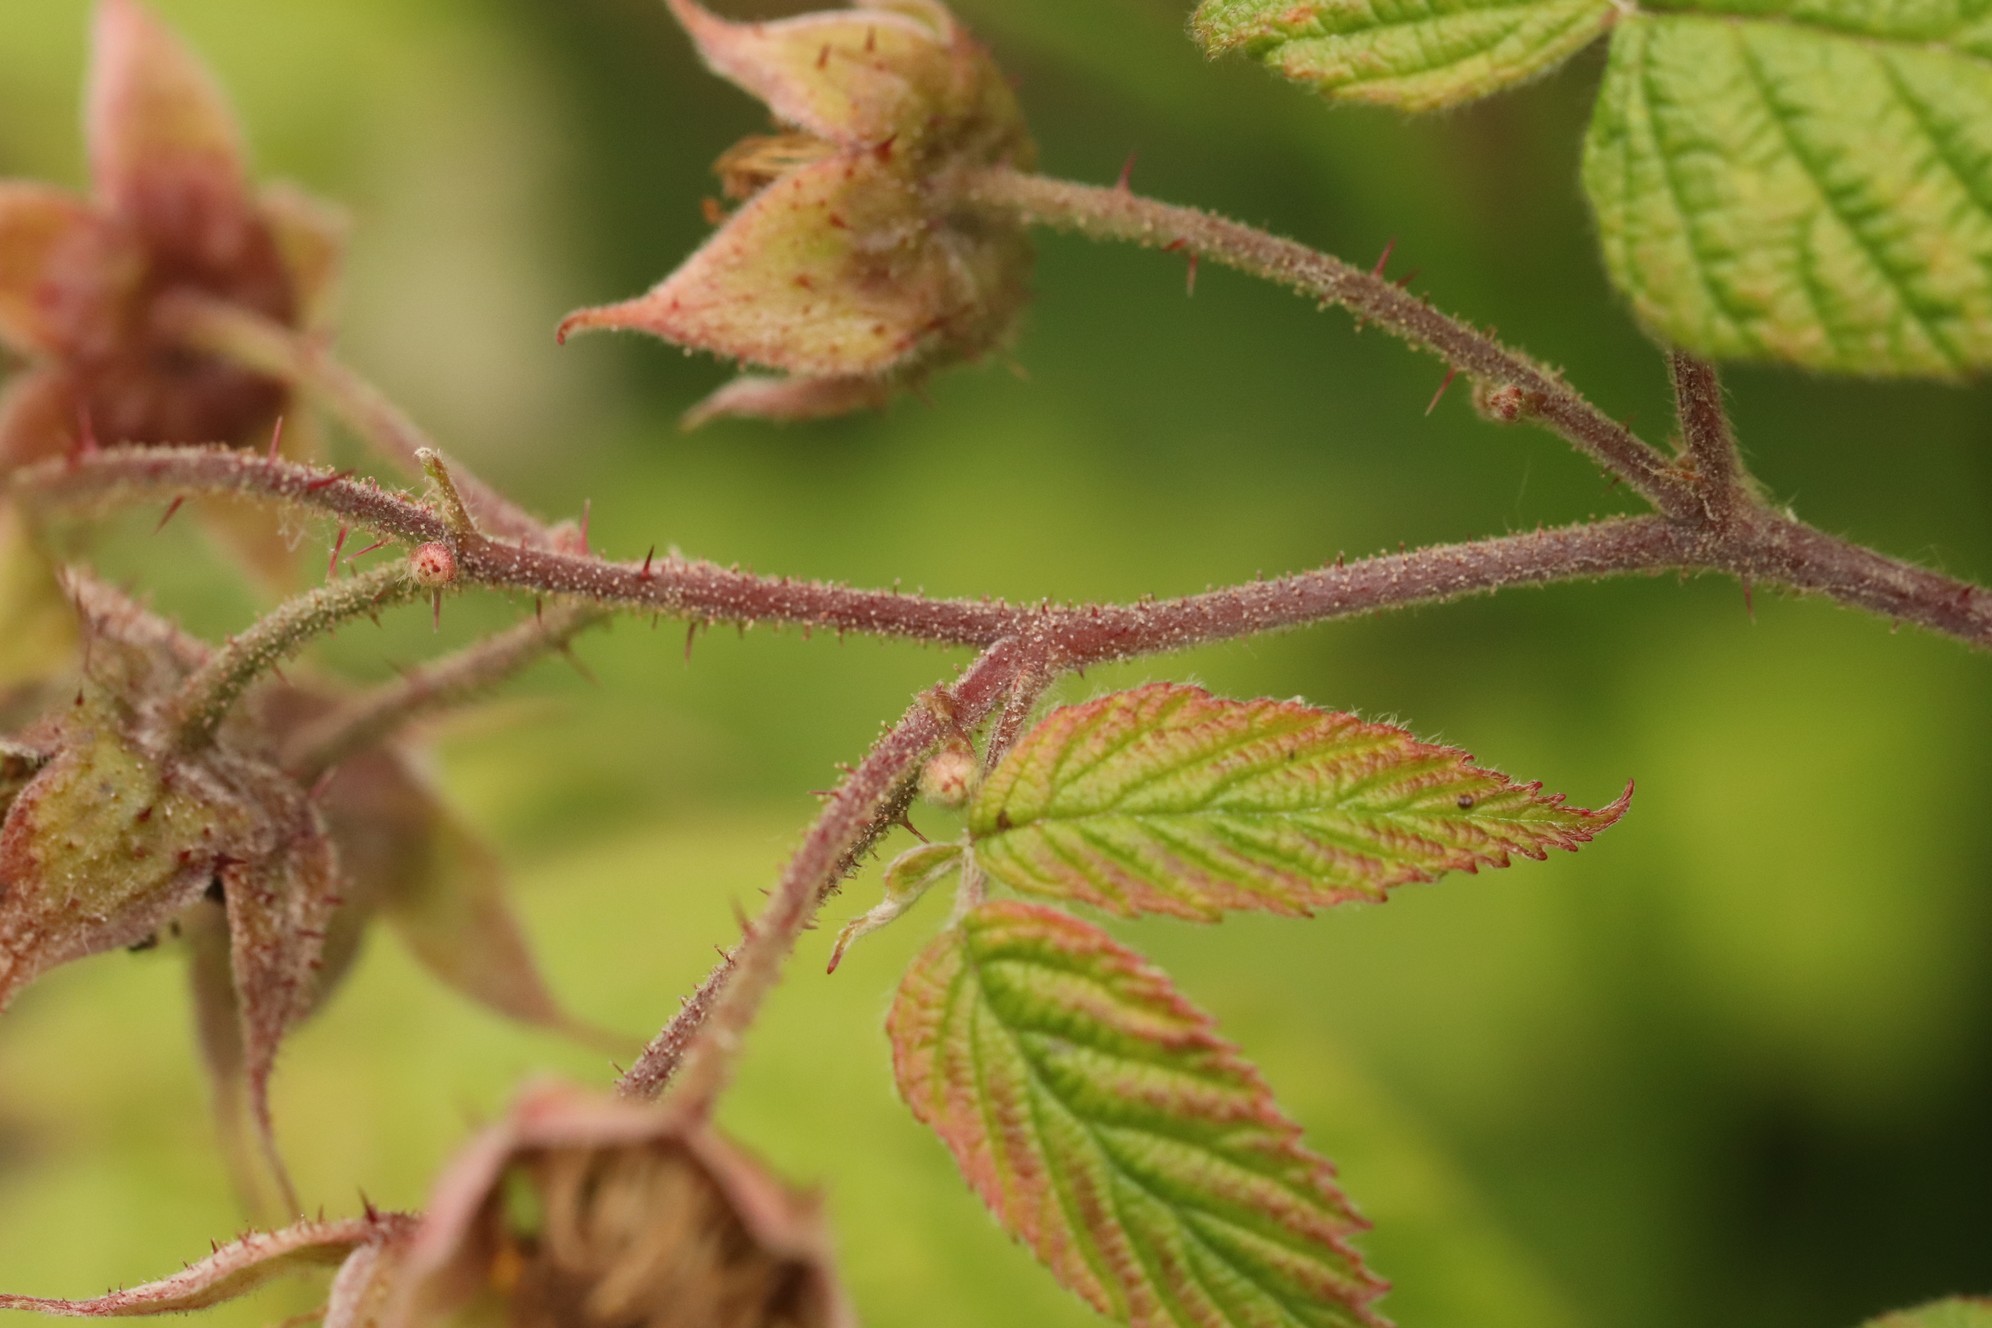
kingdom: Plantae
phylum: Tracheophyta
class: Magnoliopsida
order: Rosales
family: Rosaceae
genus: Rubus
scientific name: Rubus sachalinensis
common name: Red raspberry
